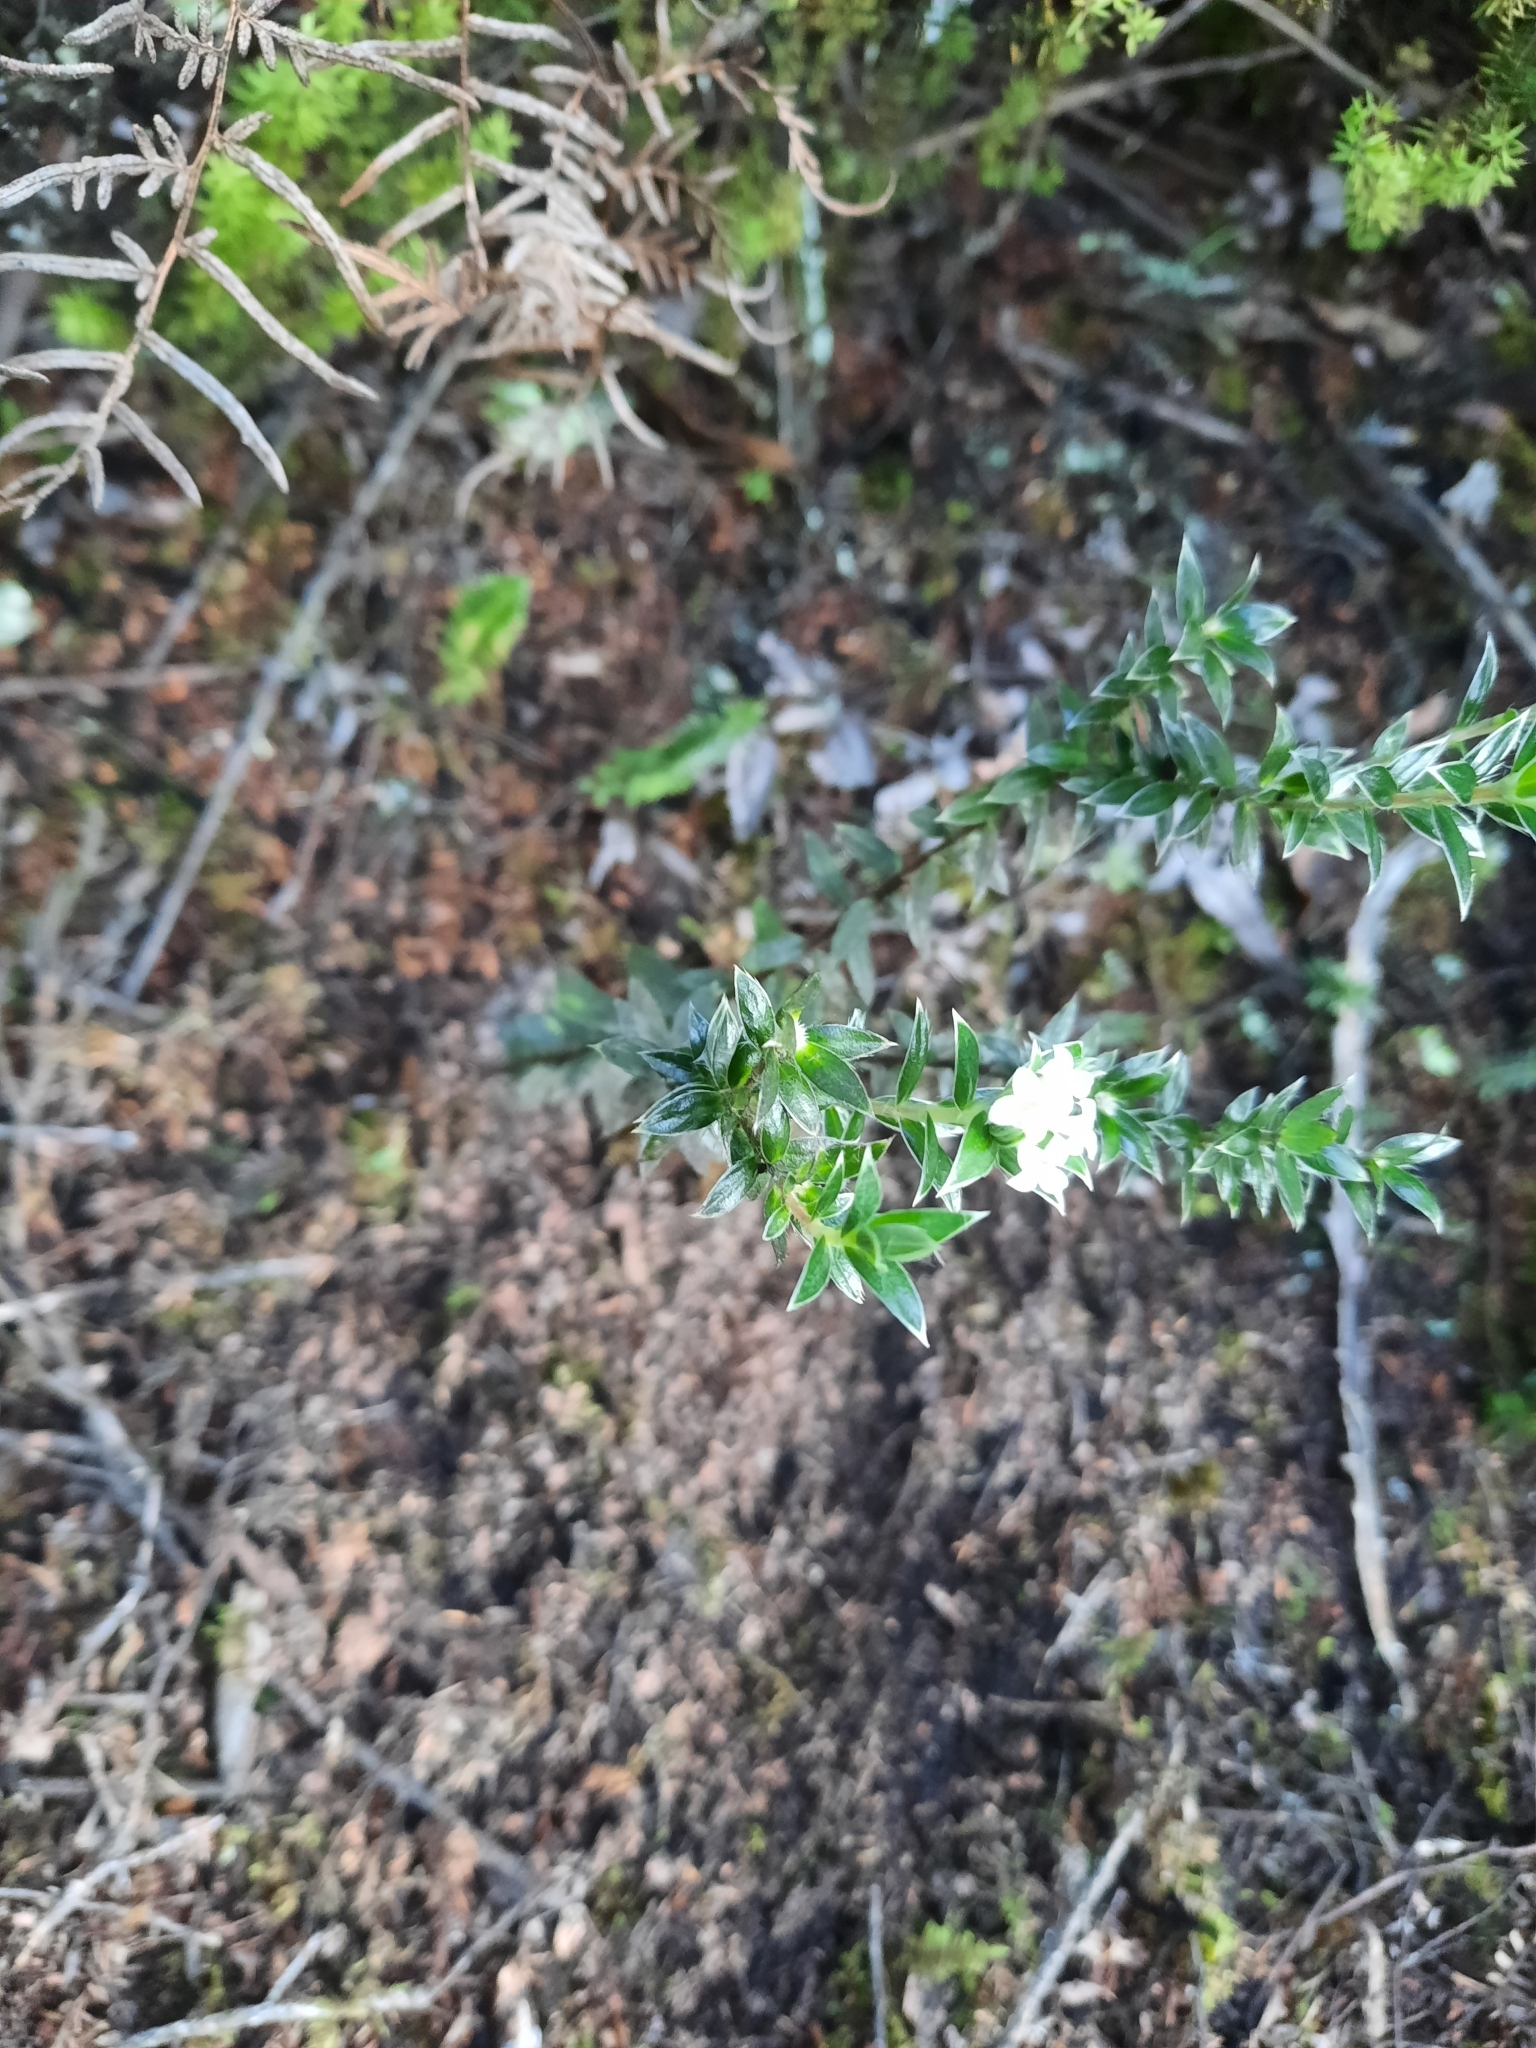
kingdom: Plantae
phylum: Tracheophyta
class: Magnoliopsida
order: Malvales
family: Thymelaeaceae
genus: Pimelea
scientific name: Pimelea pseudolyallii
